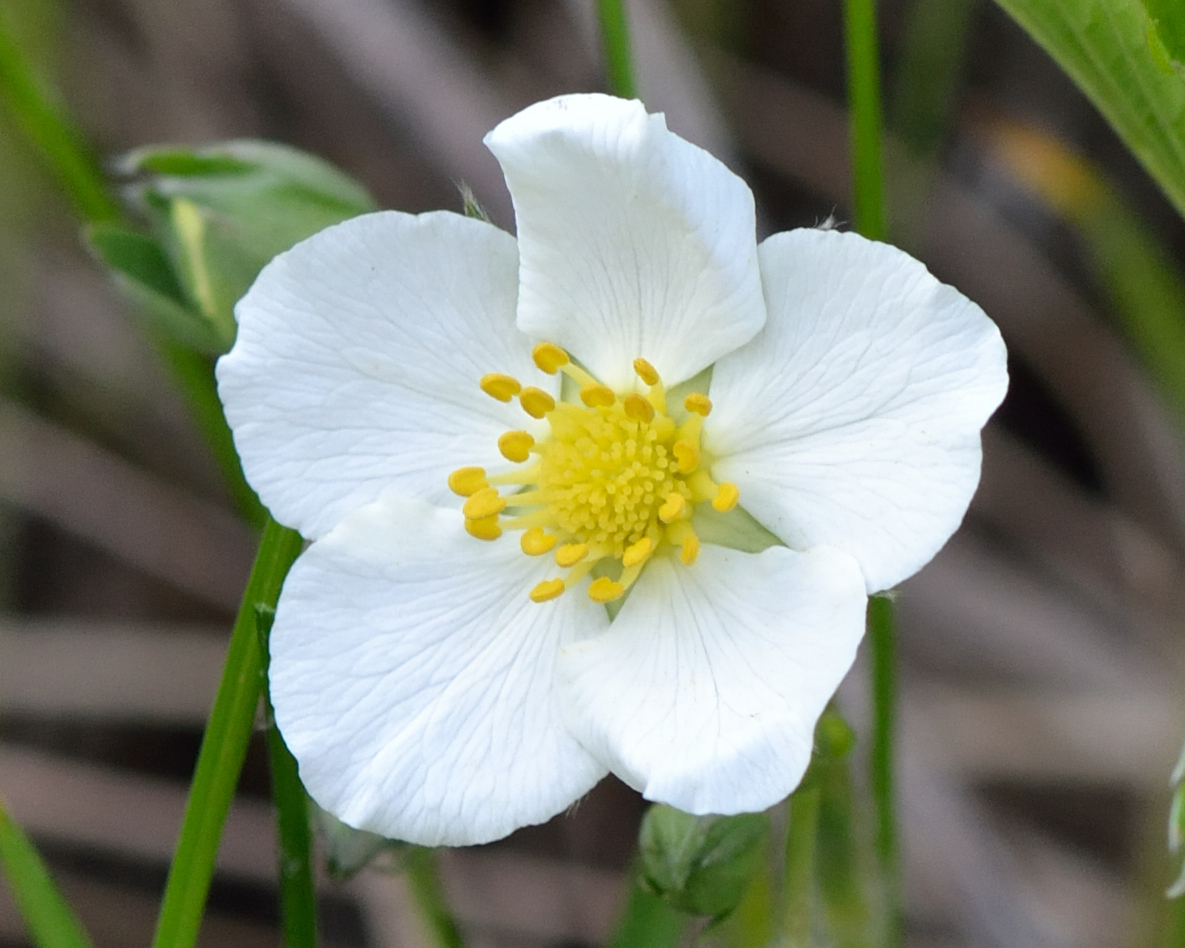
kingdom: Plantae
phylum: Tracheophyta
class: Magnoliopsida
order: Rosales
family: Rosaceae
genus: Fragaria
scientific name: Fragaria viridis
